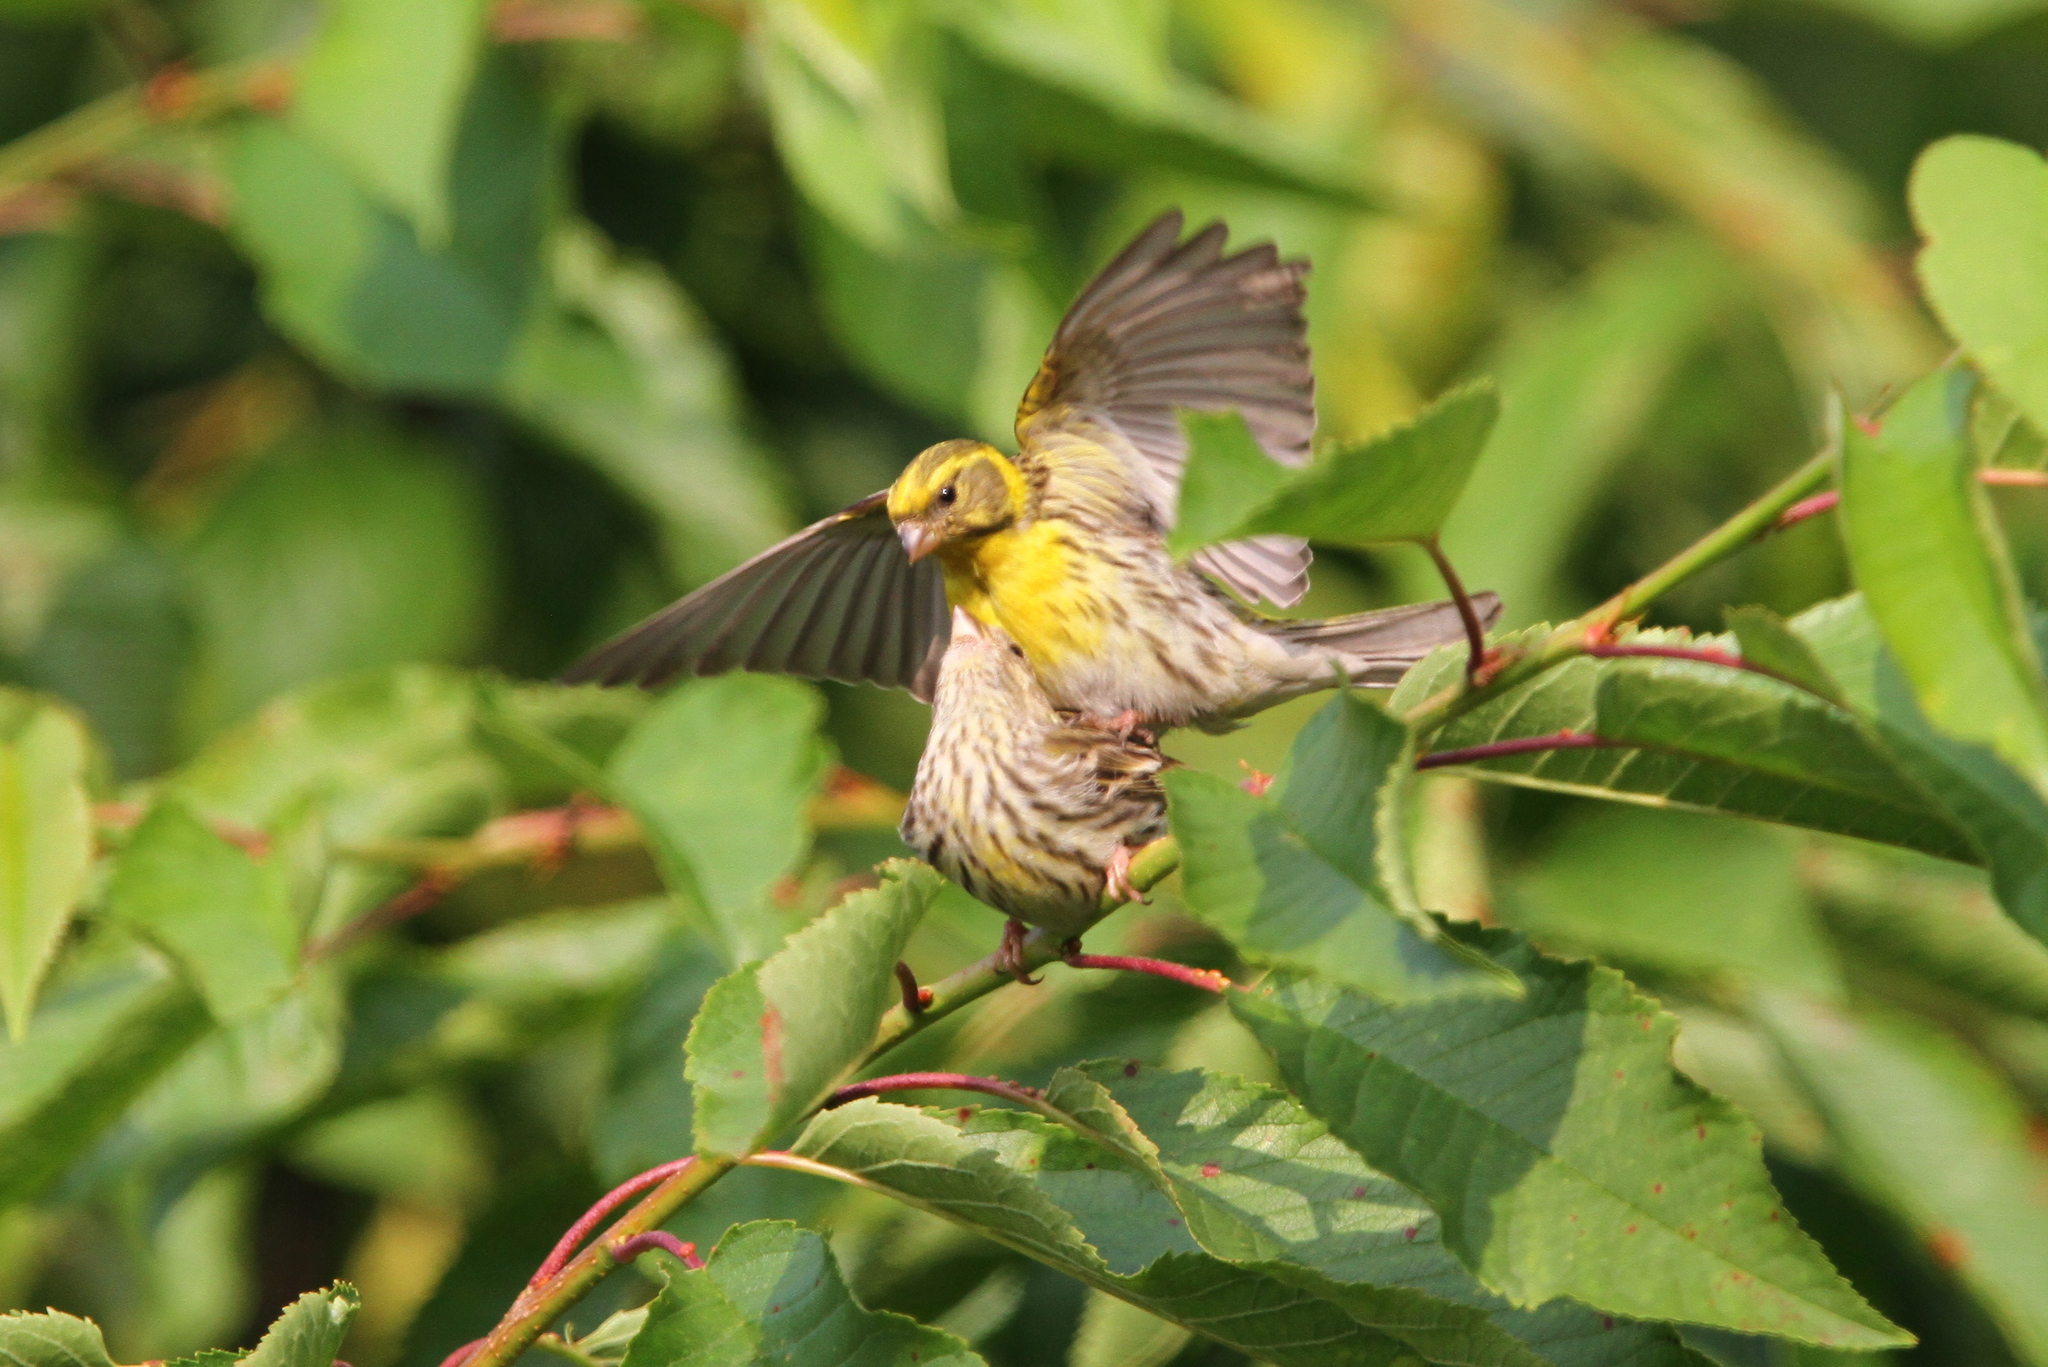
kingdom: Animalia
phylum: Chordata
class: Aves
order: Passeriformes
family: Fringillidae
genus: Serinus
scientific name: Serinus serinus
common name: European serin
